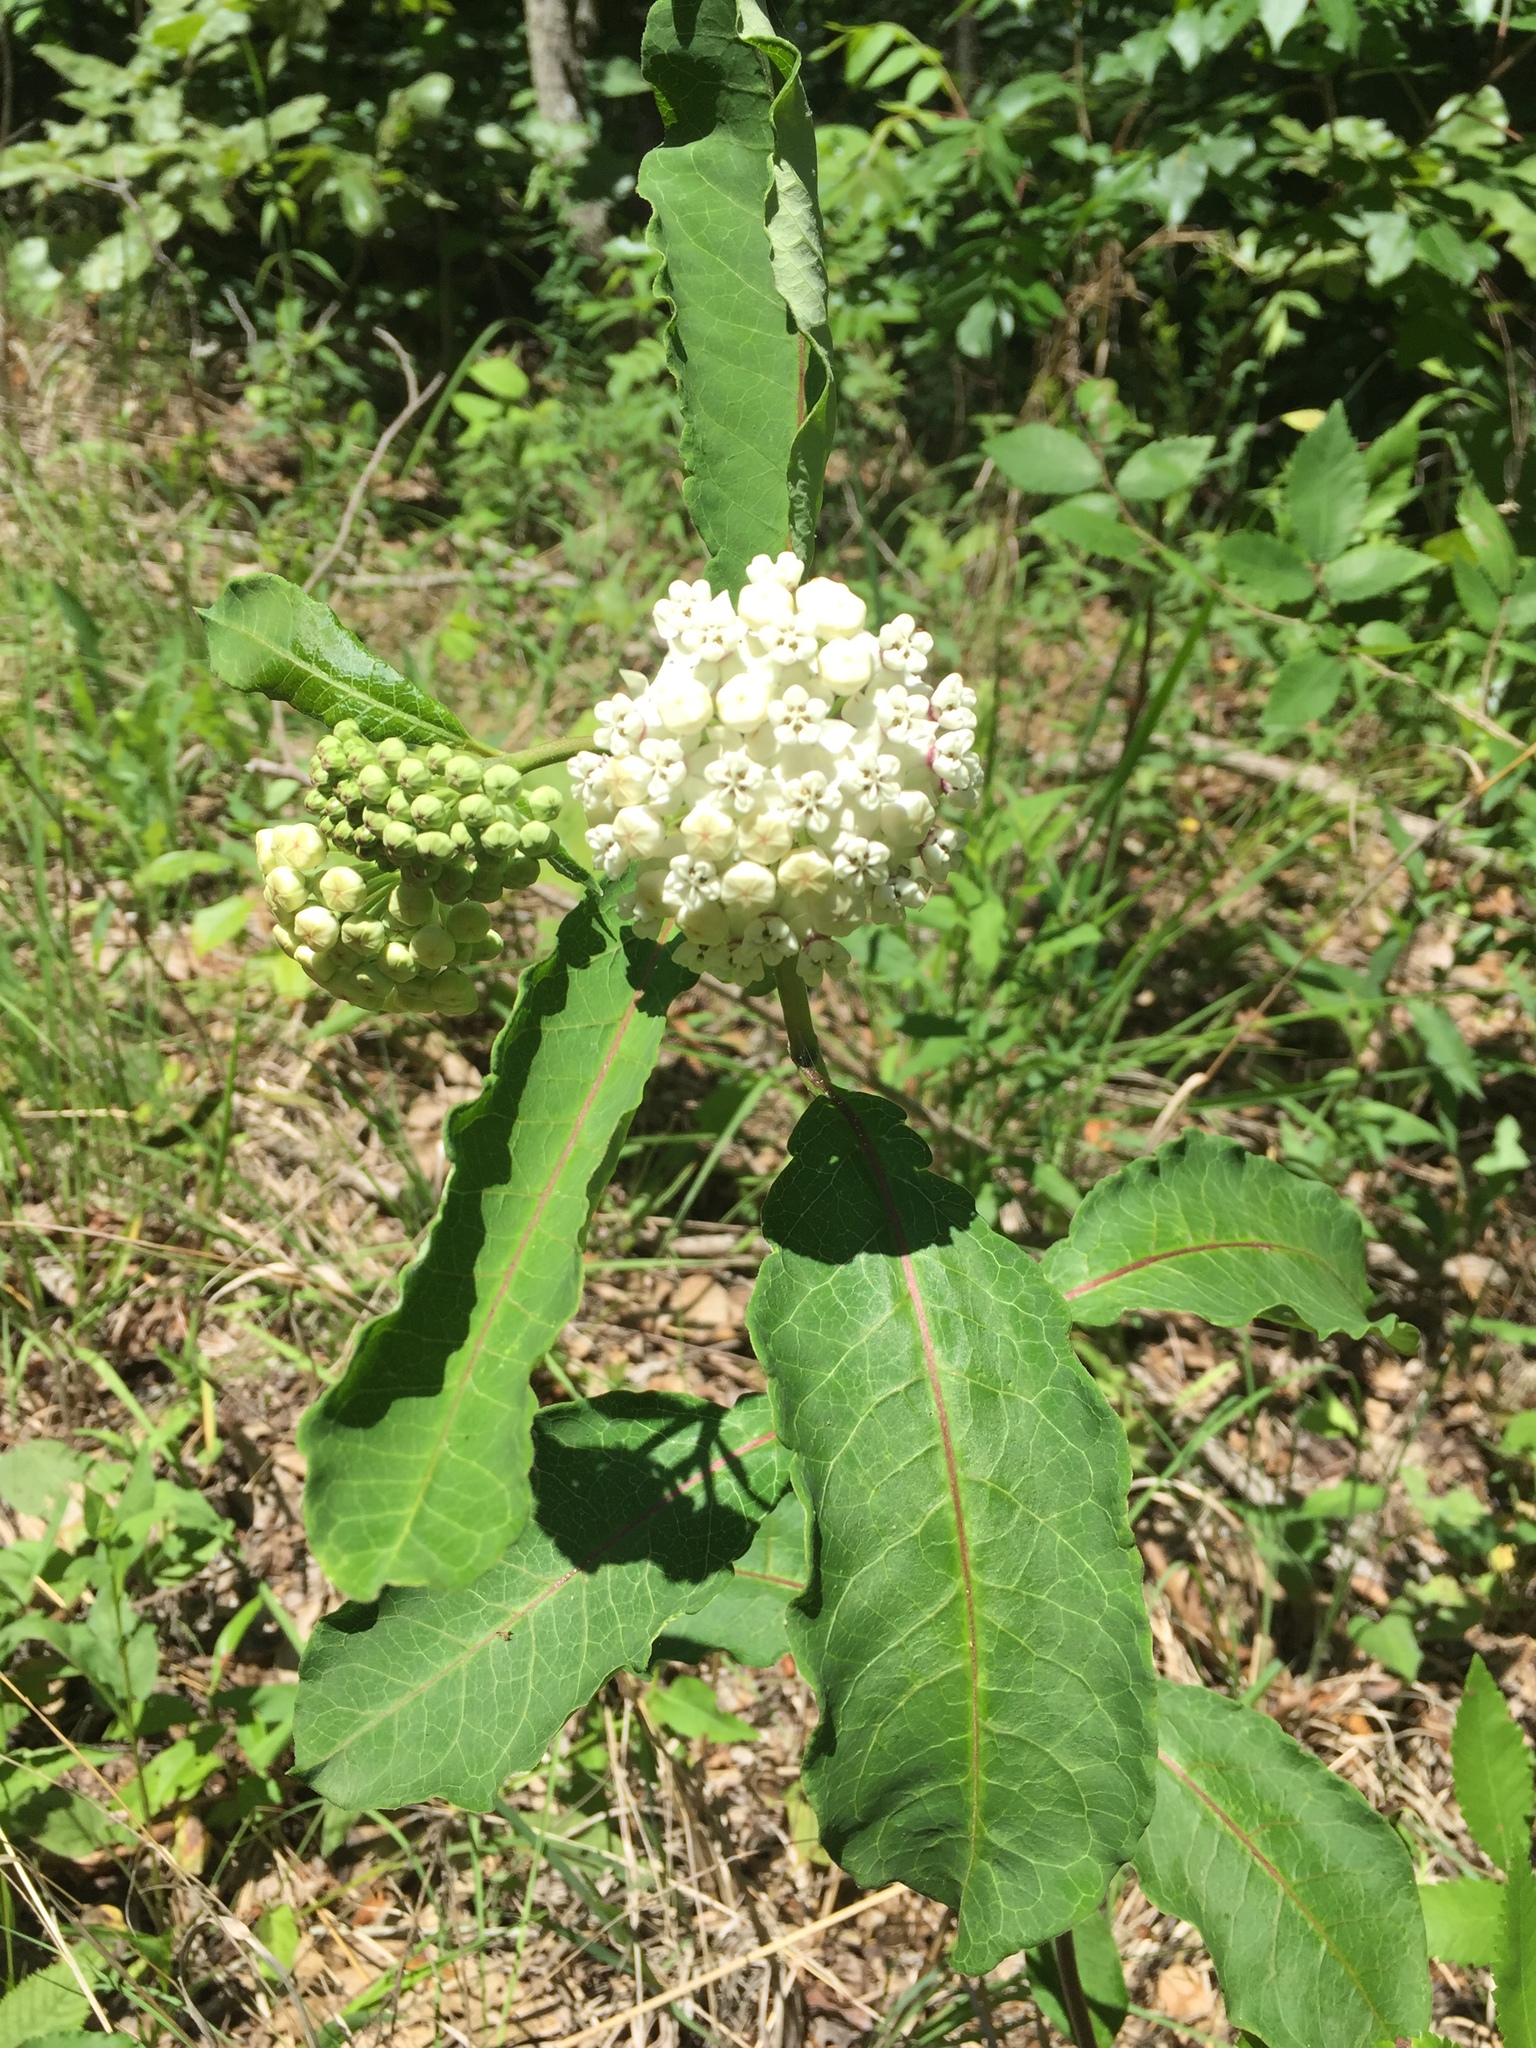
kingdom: Plantae
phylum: Tracheophyta
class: Magnoliopsida
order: Gentianales
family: Apocynaceae
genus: Asclepias
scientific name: Asclepias variegata
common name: Variegated milkweed
